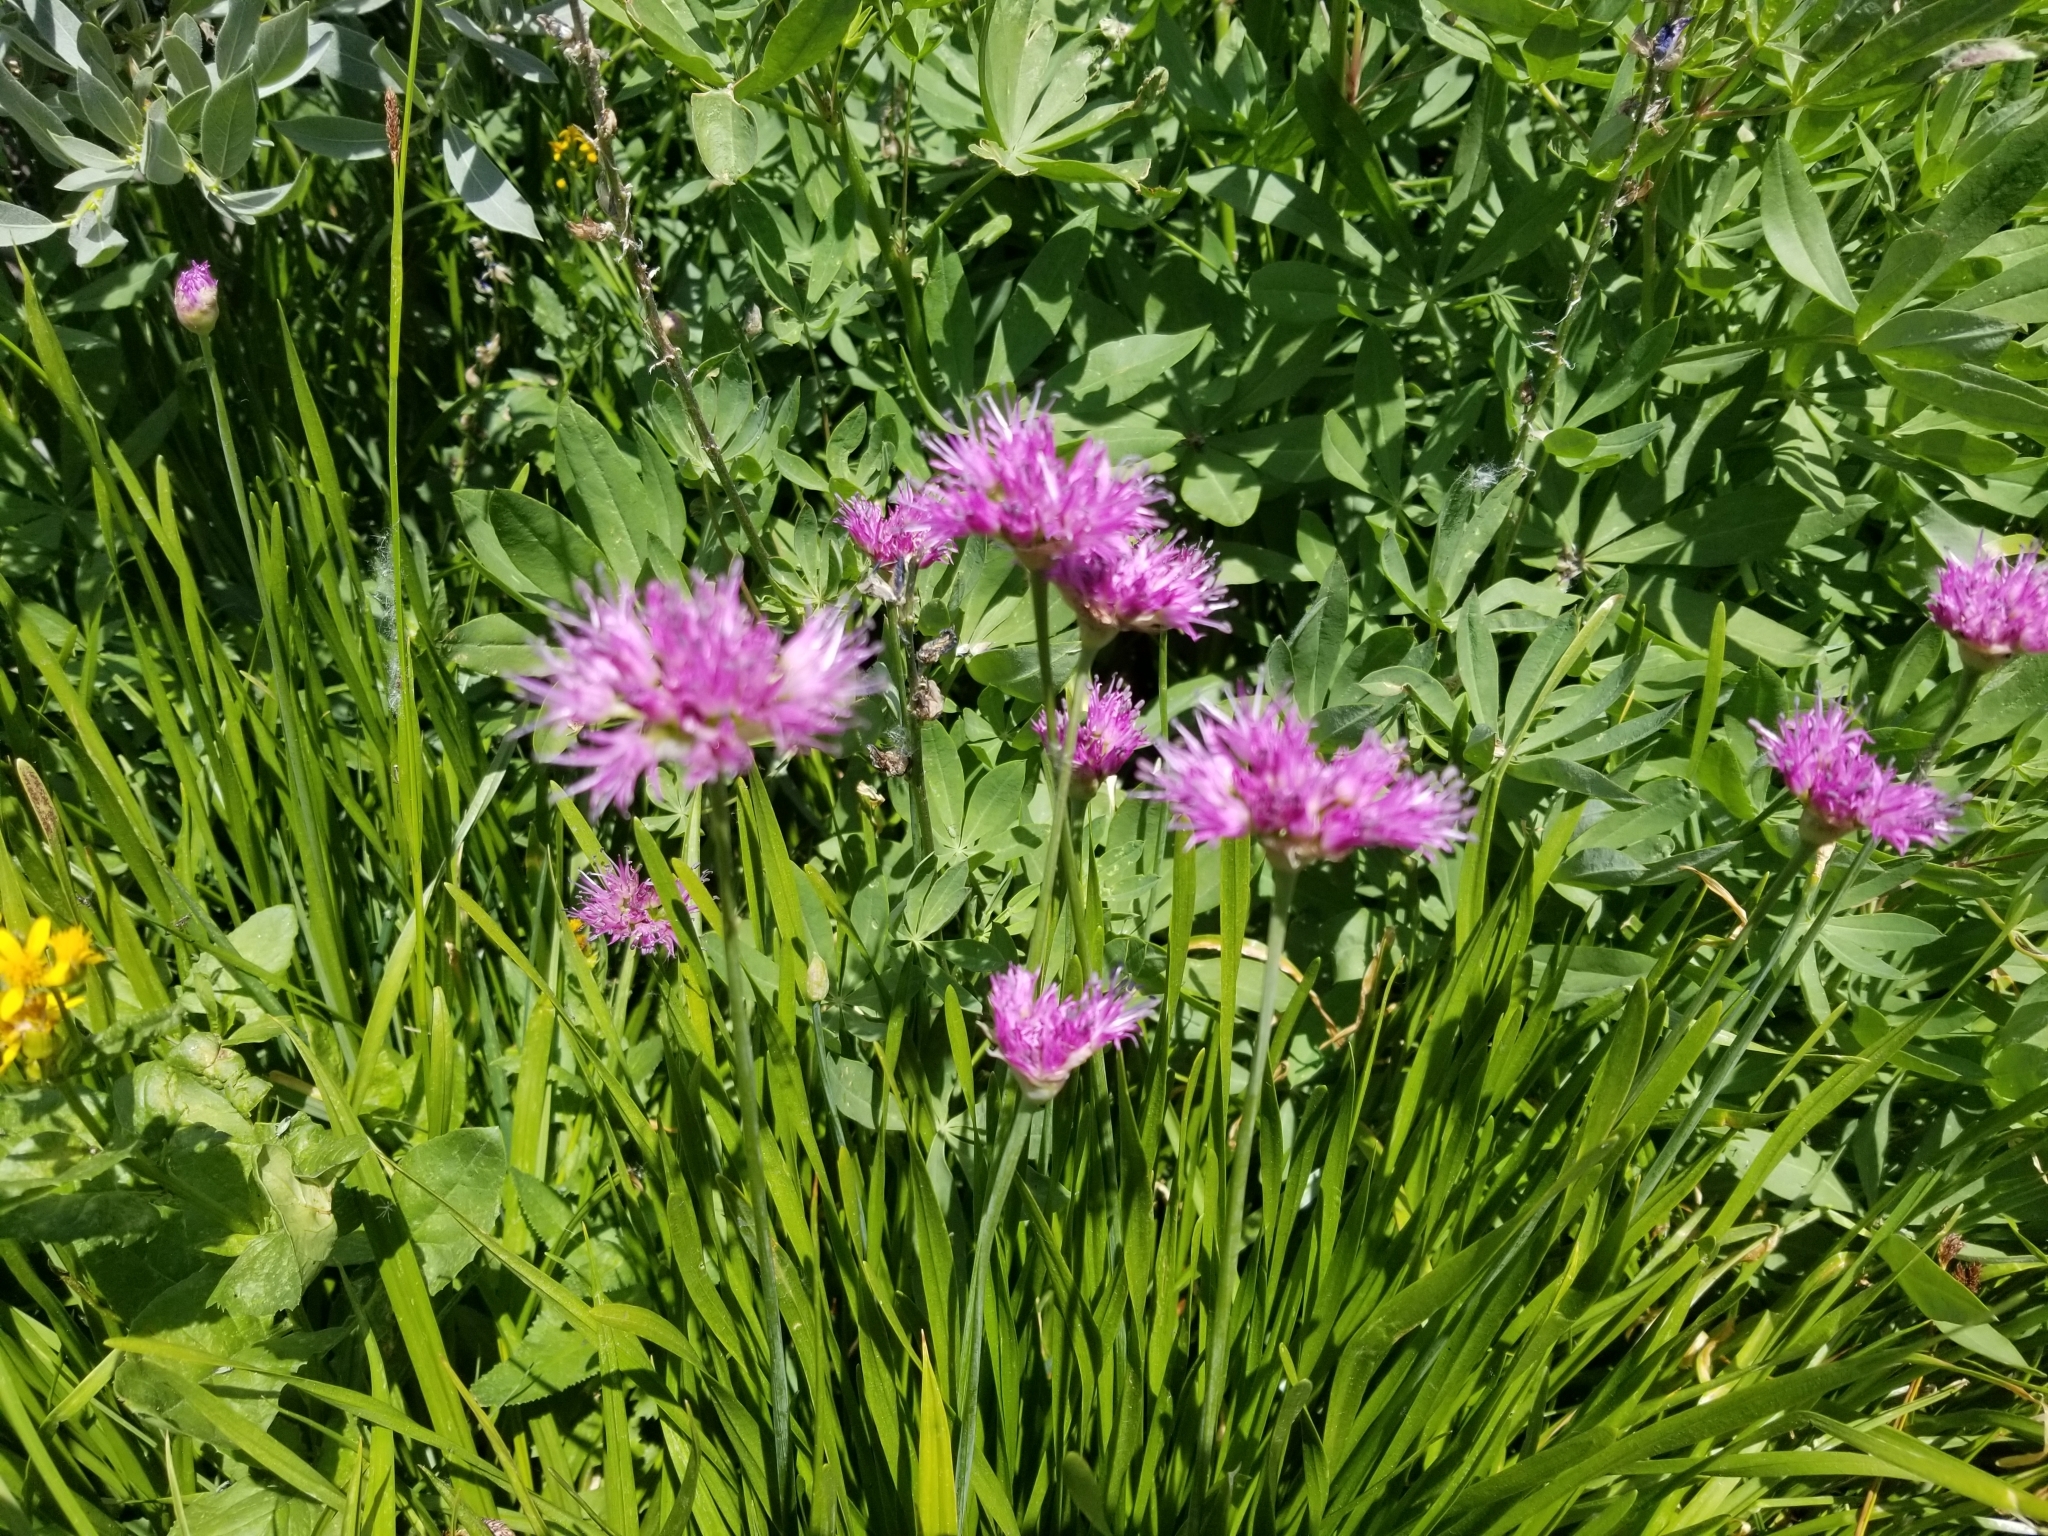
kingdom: Plantae
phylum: Tracheophyta
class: Liliopsida
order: Asparagales
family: Amaryllidaceae
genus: Allium
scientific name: Allium validum
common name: Pacific mountain onion
